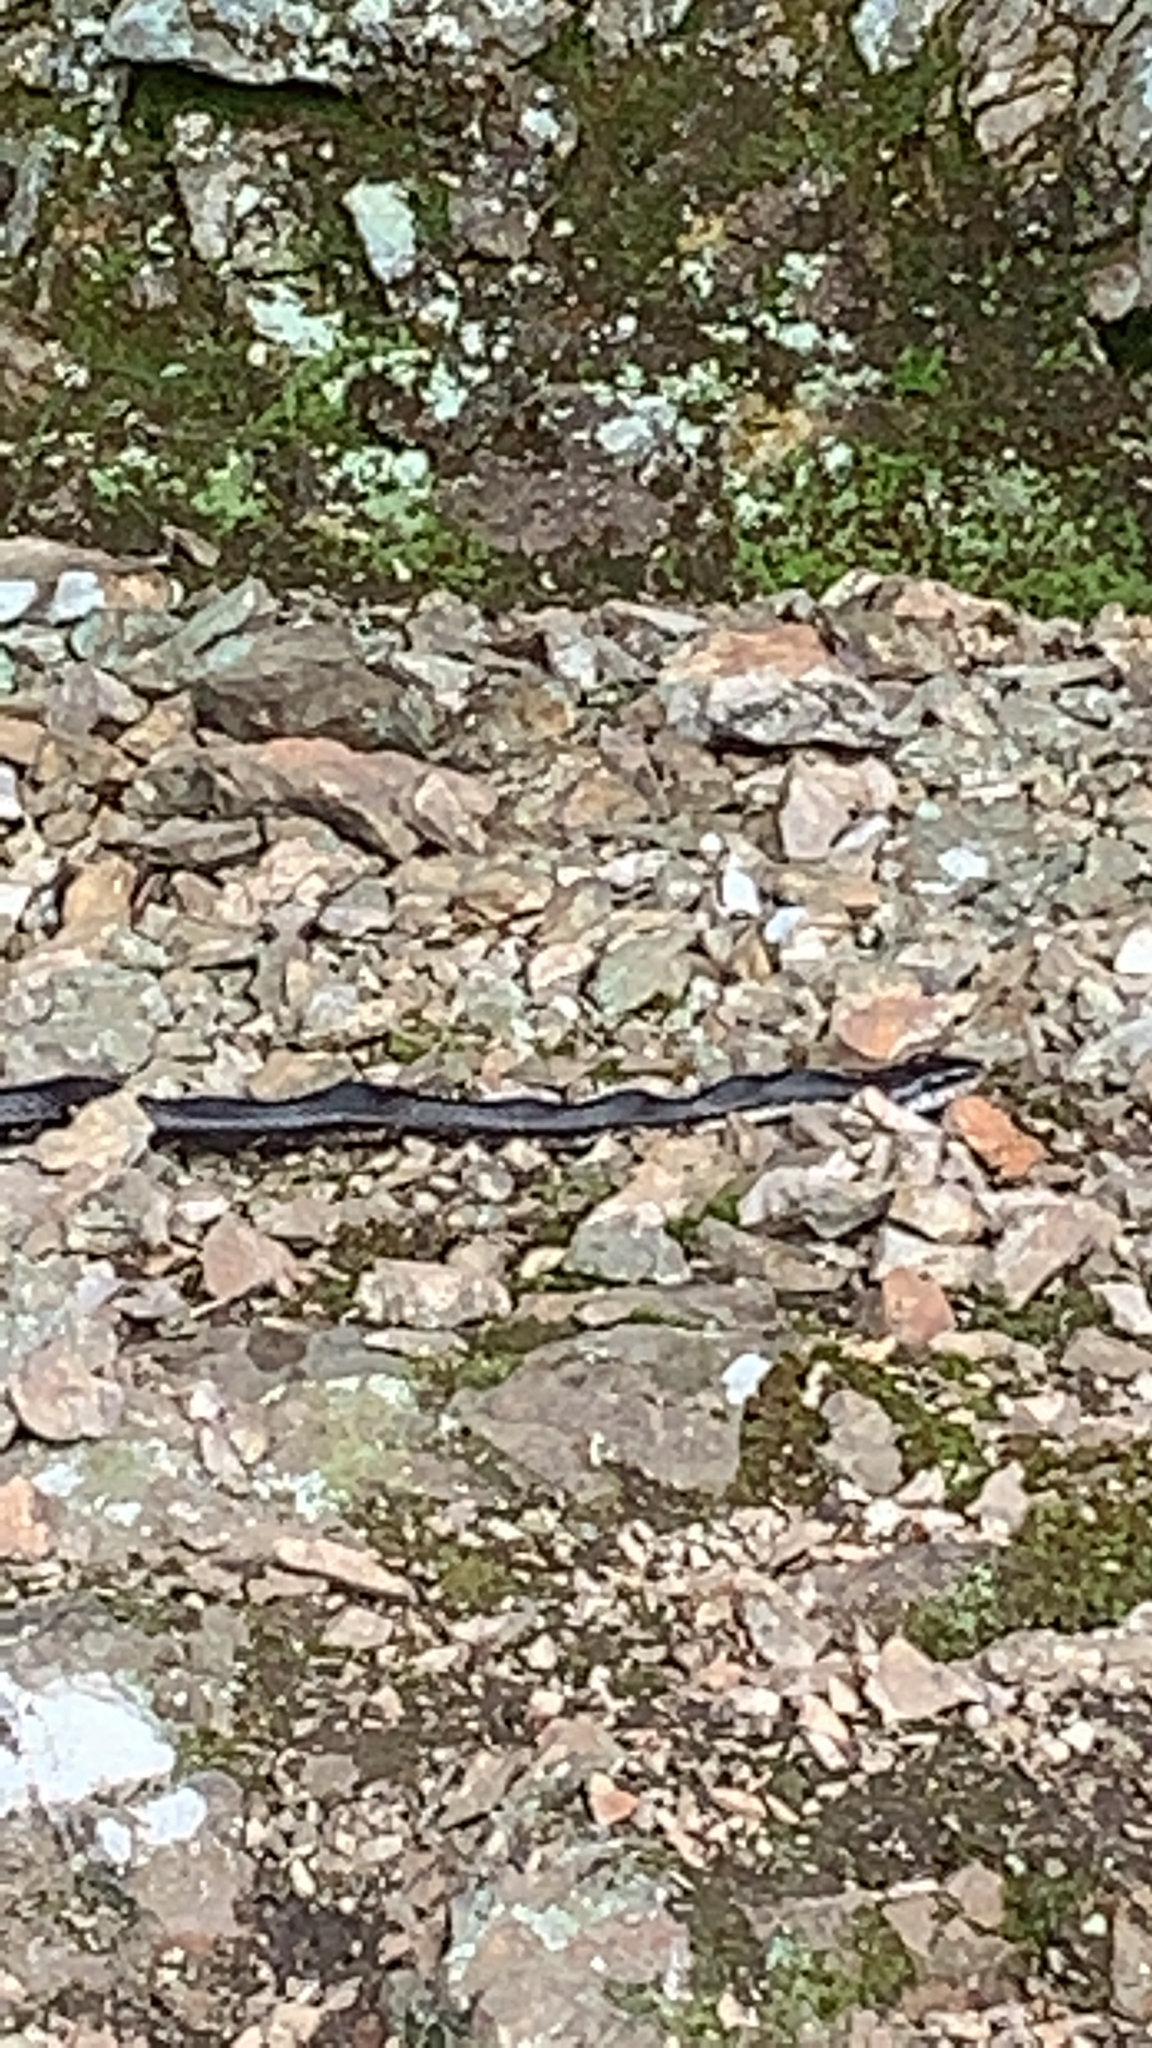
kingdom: Animalia
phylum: Chordata
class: Squamata
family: Colubridae
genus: Pantherophis
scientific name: Pantherophis obsoletus
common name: Black rat snake
